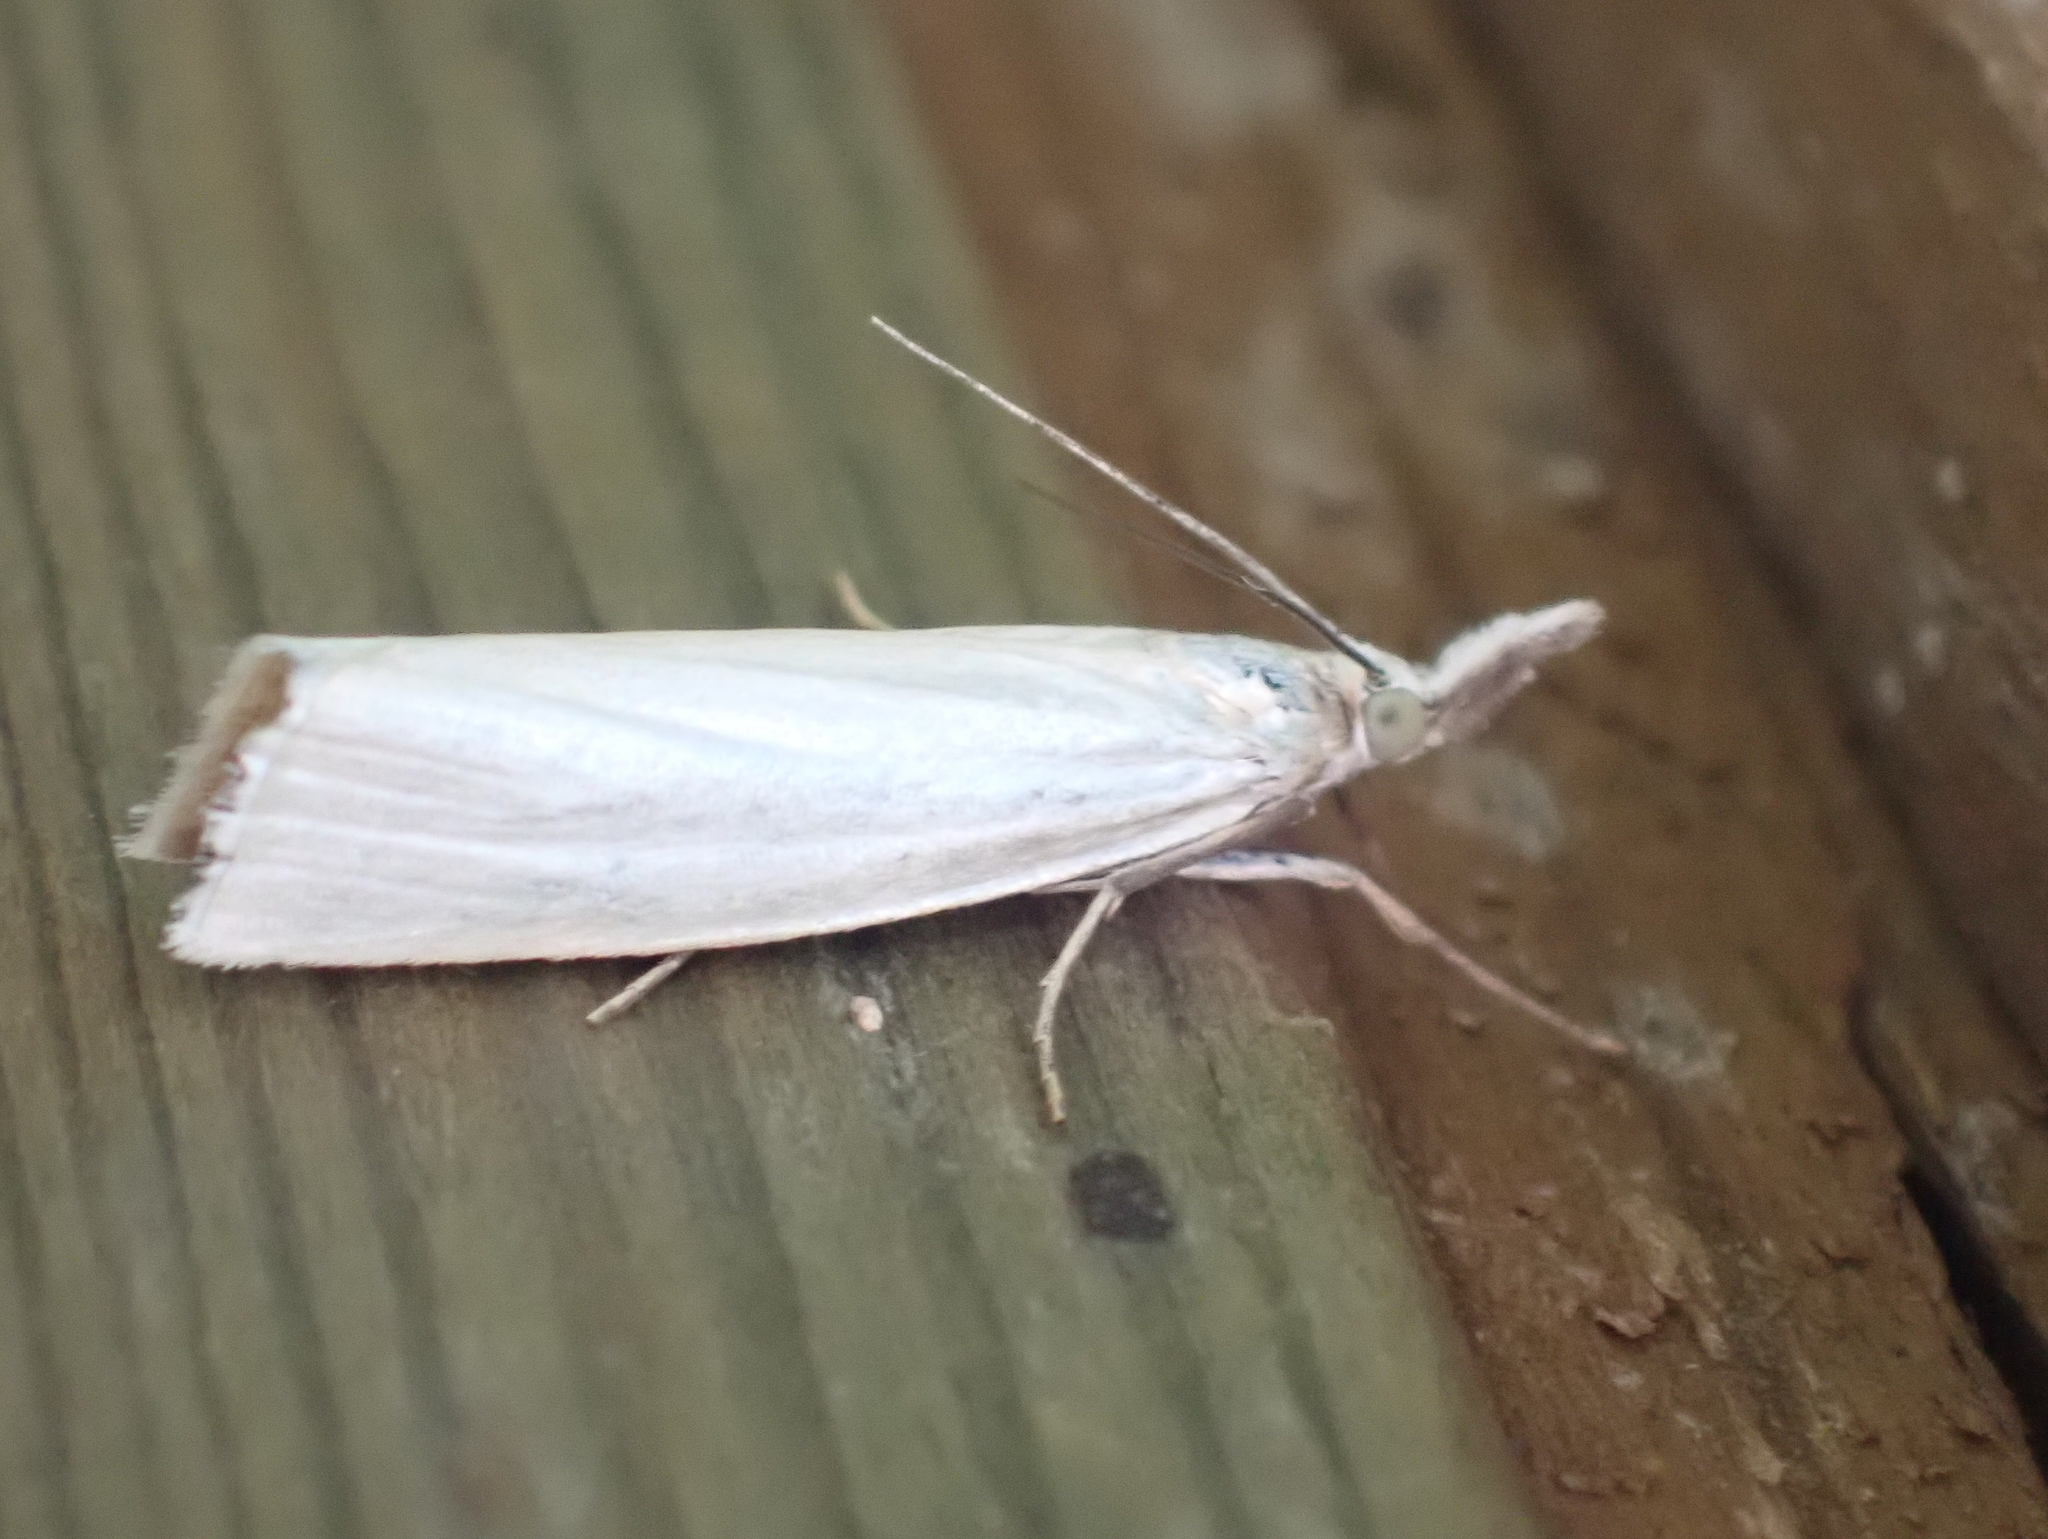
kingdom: Animalia
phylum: Arthropoda
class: Insecta
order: Lepidoptera
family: Crambidae
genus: Crambus
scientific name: Crambus perlellus
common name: Yellow satin veneer
